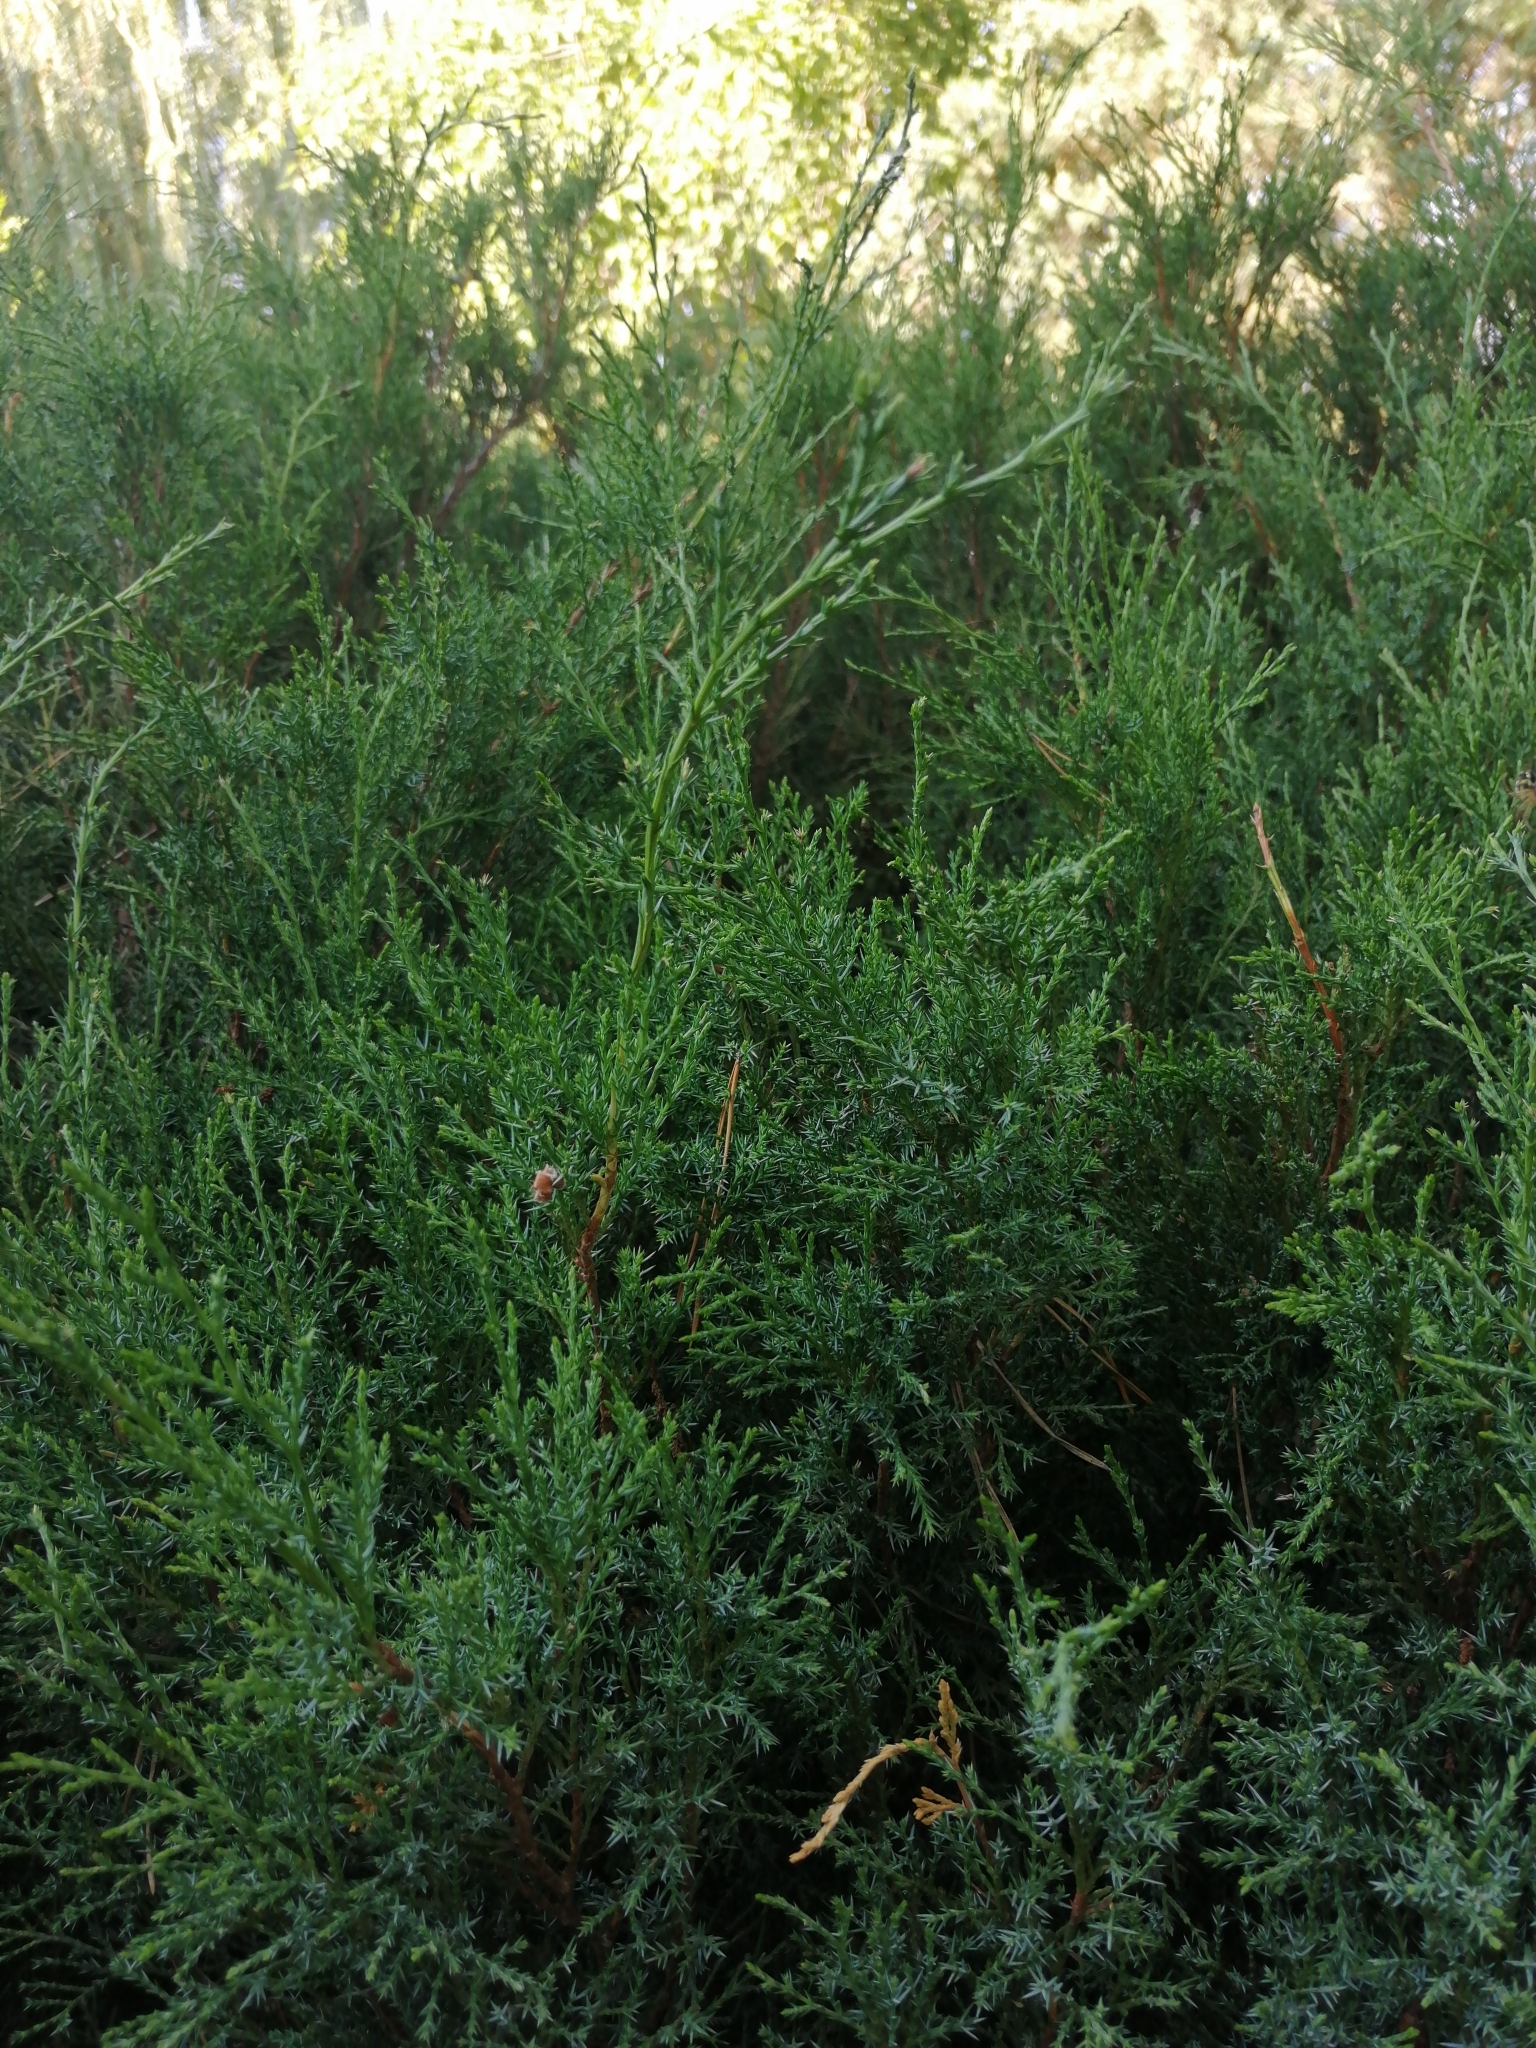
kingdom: Plantae
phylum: Tracheophyta
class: Pinopsida
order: Pinales
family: Cupressaceae
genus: Juniperus
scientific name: Juniperus sabina
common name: Savin
